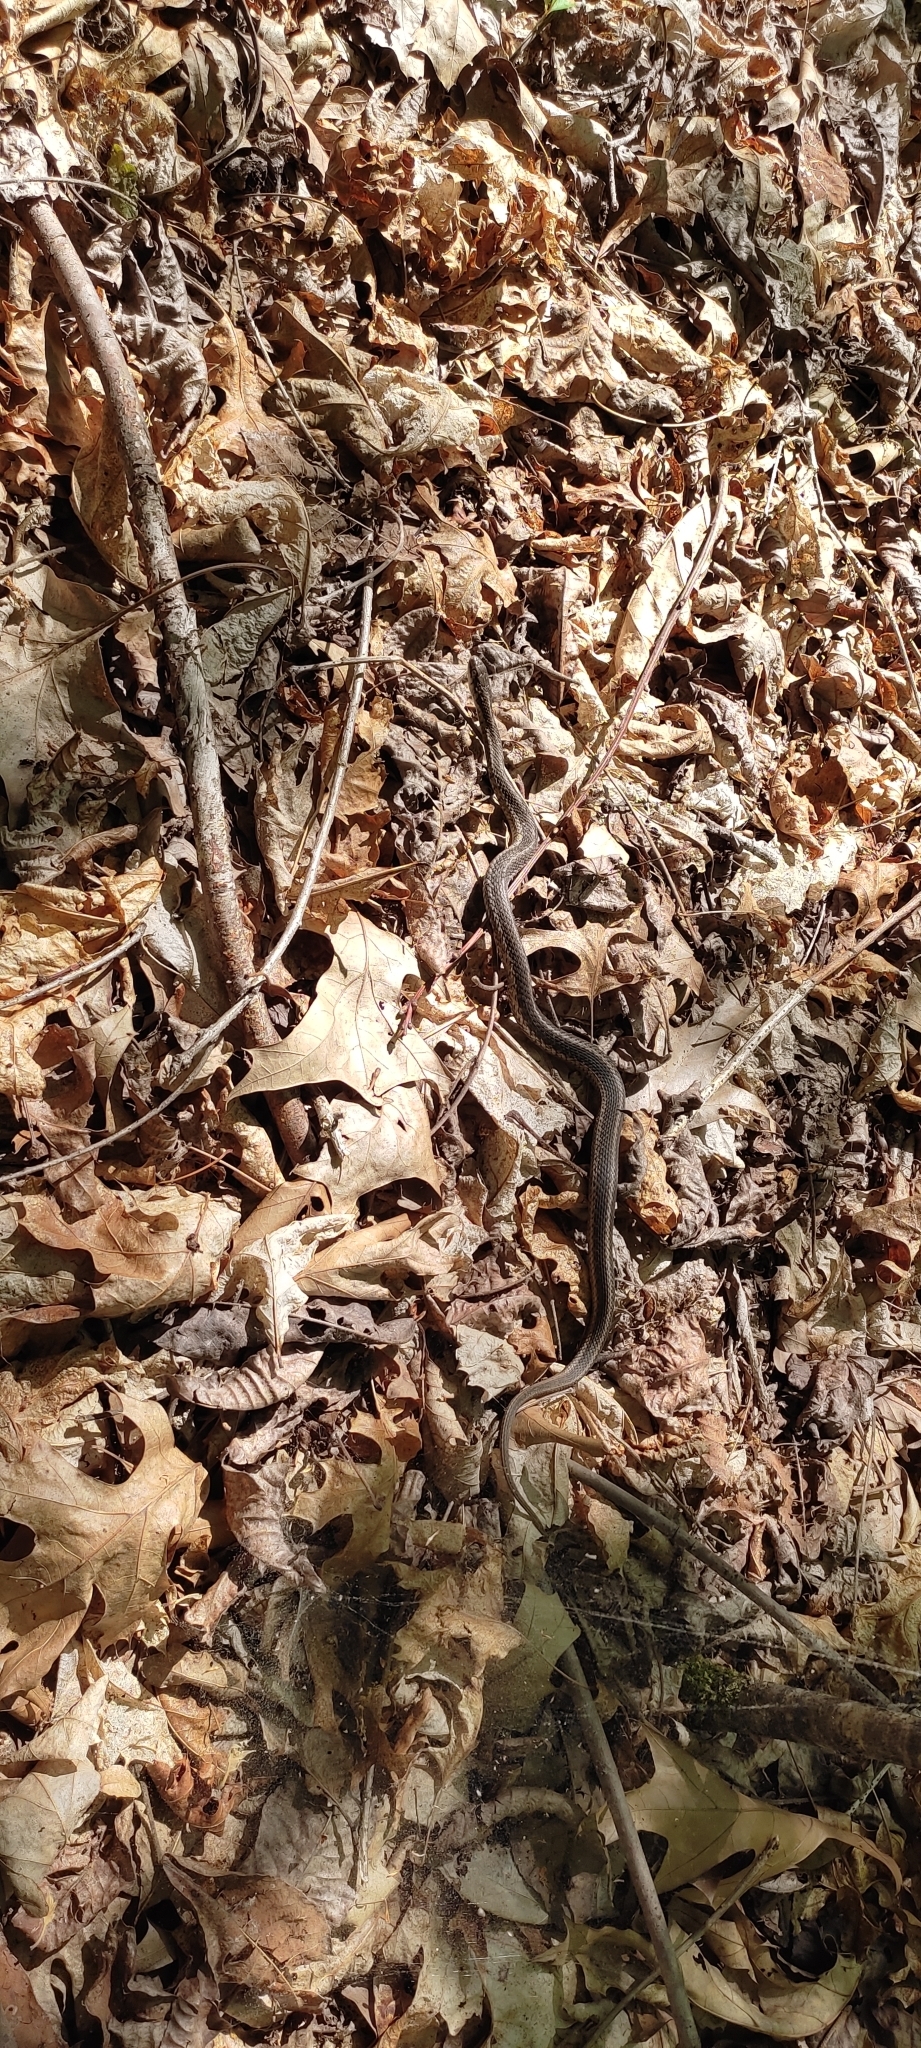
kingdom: Animalia
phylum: Chordata
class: Squamata
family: Colubridae
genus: Thamnophis
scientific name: Thamnophis sirtalis
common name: Common garter snake
